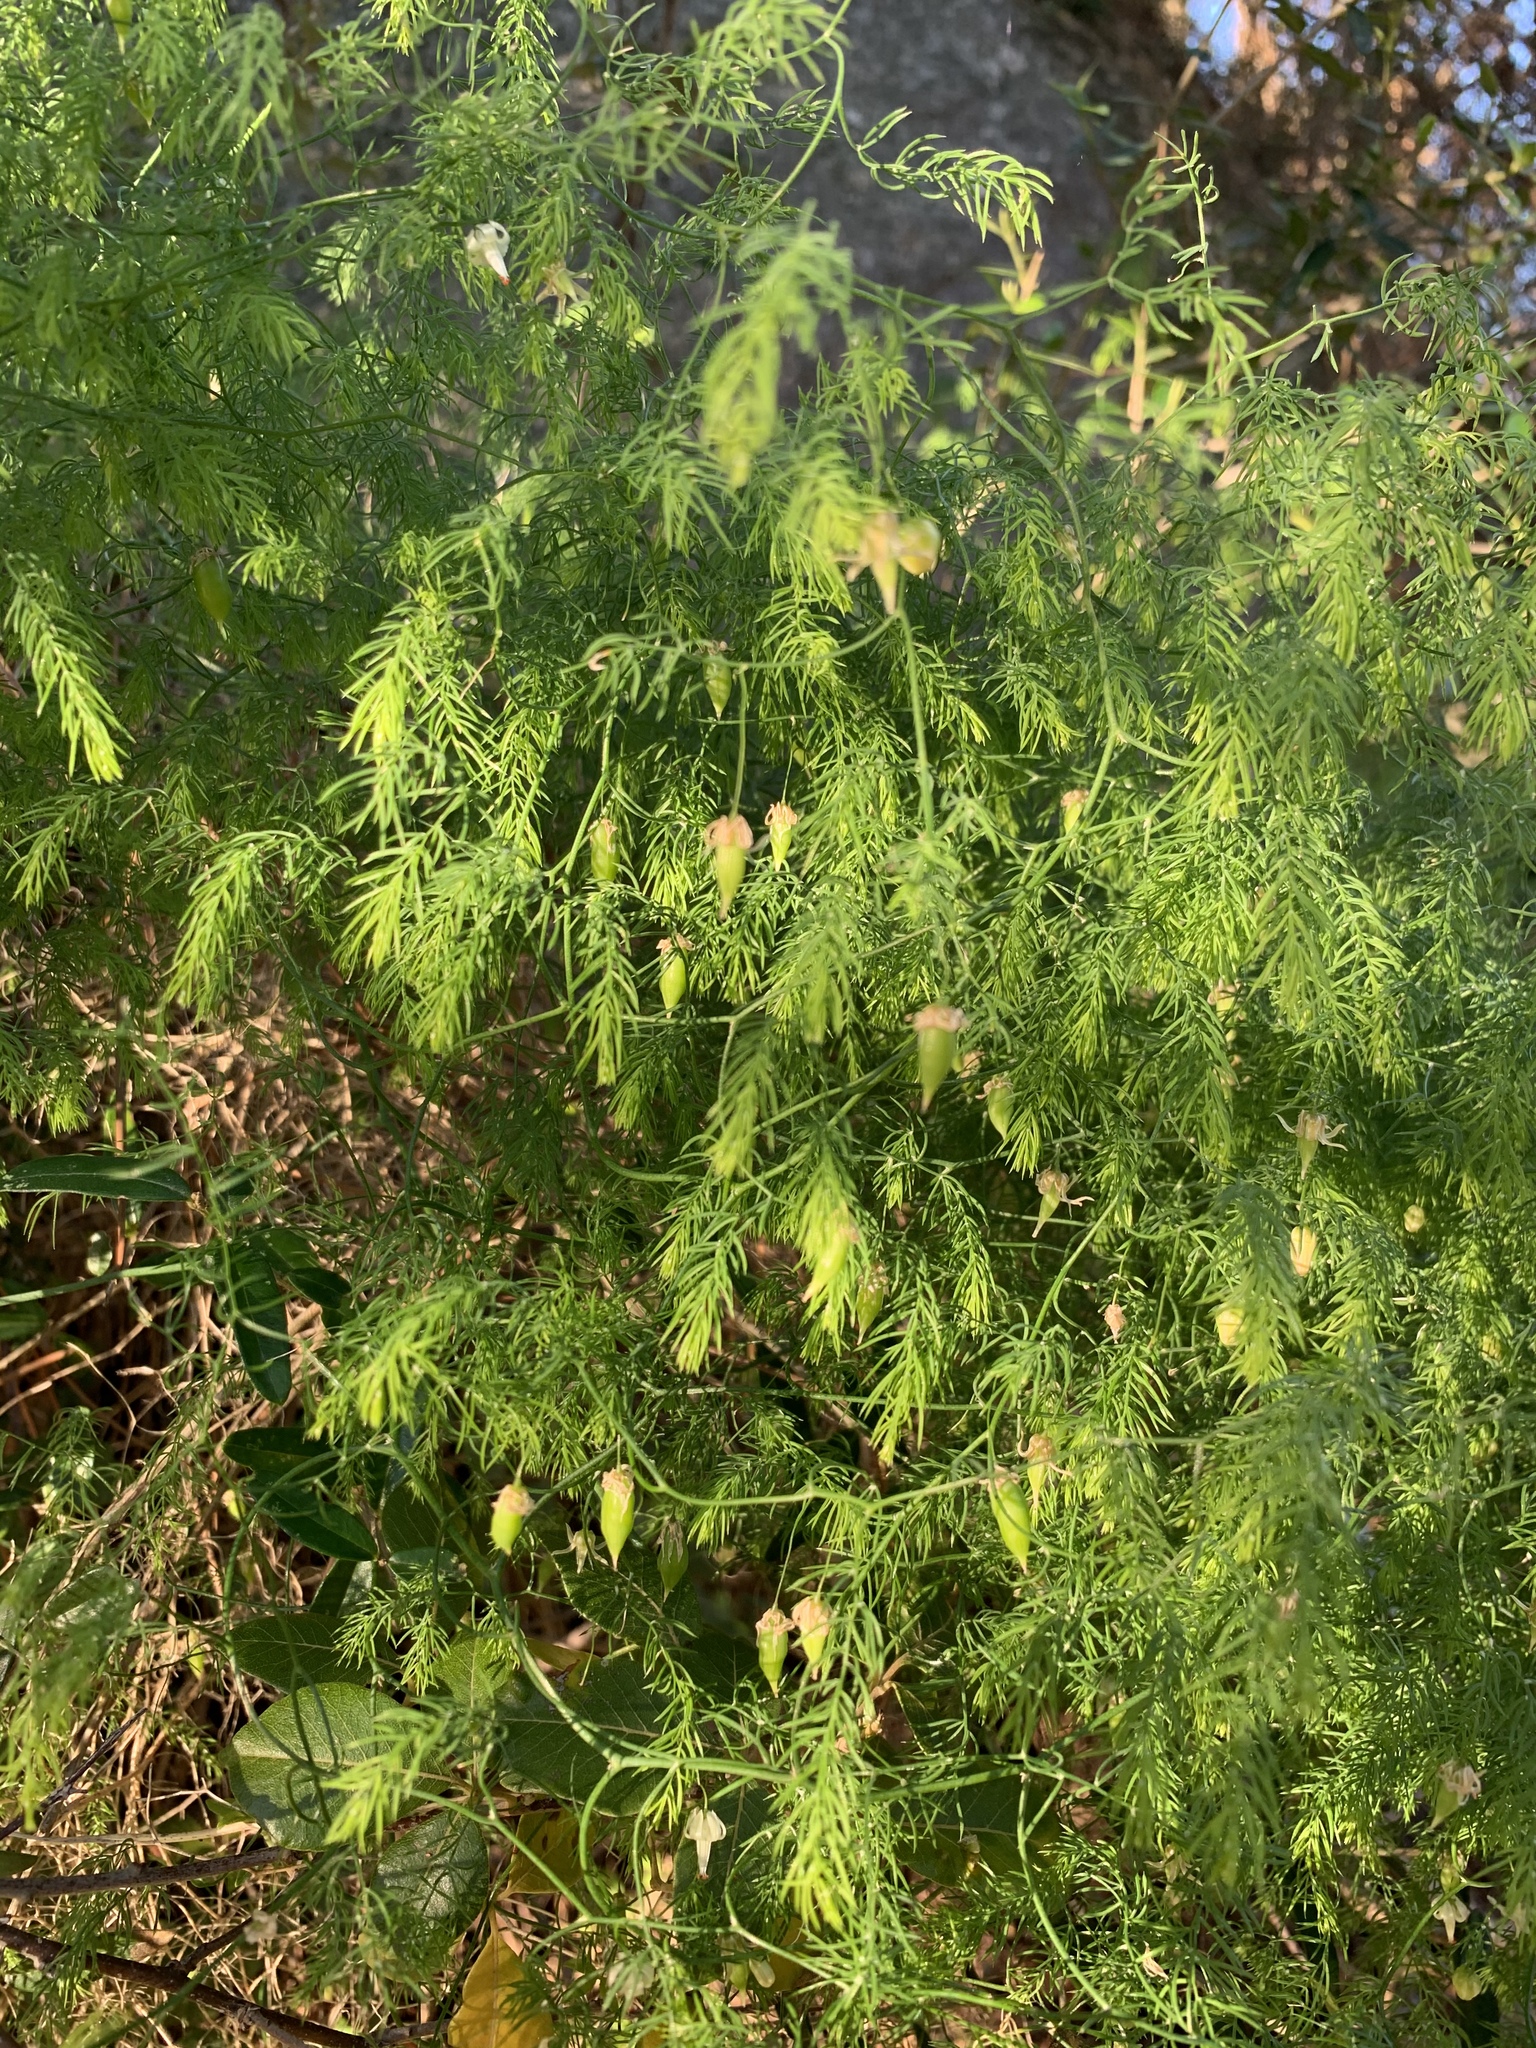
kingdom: Plantae
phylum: Tracheophyta
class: Liliopsida
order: Asparagales
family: Asparagaceae
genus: Asparagus
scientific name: Asparagus declinatus
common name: Bridal-creeper
